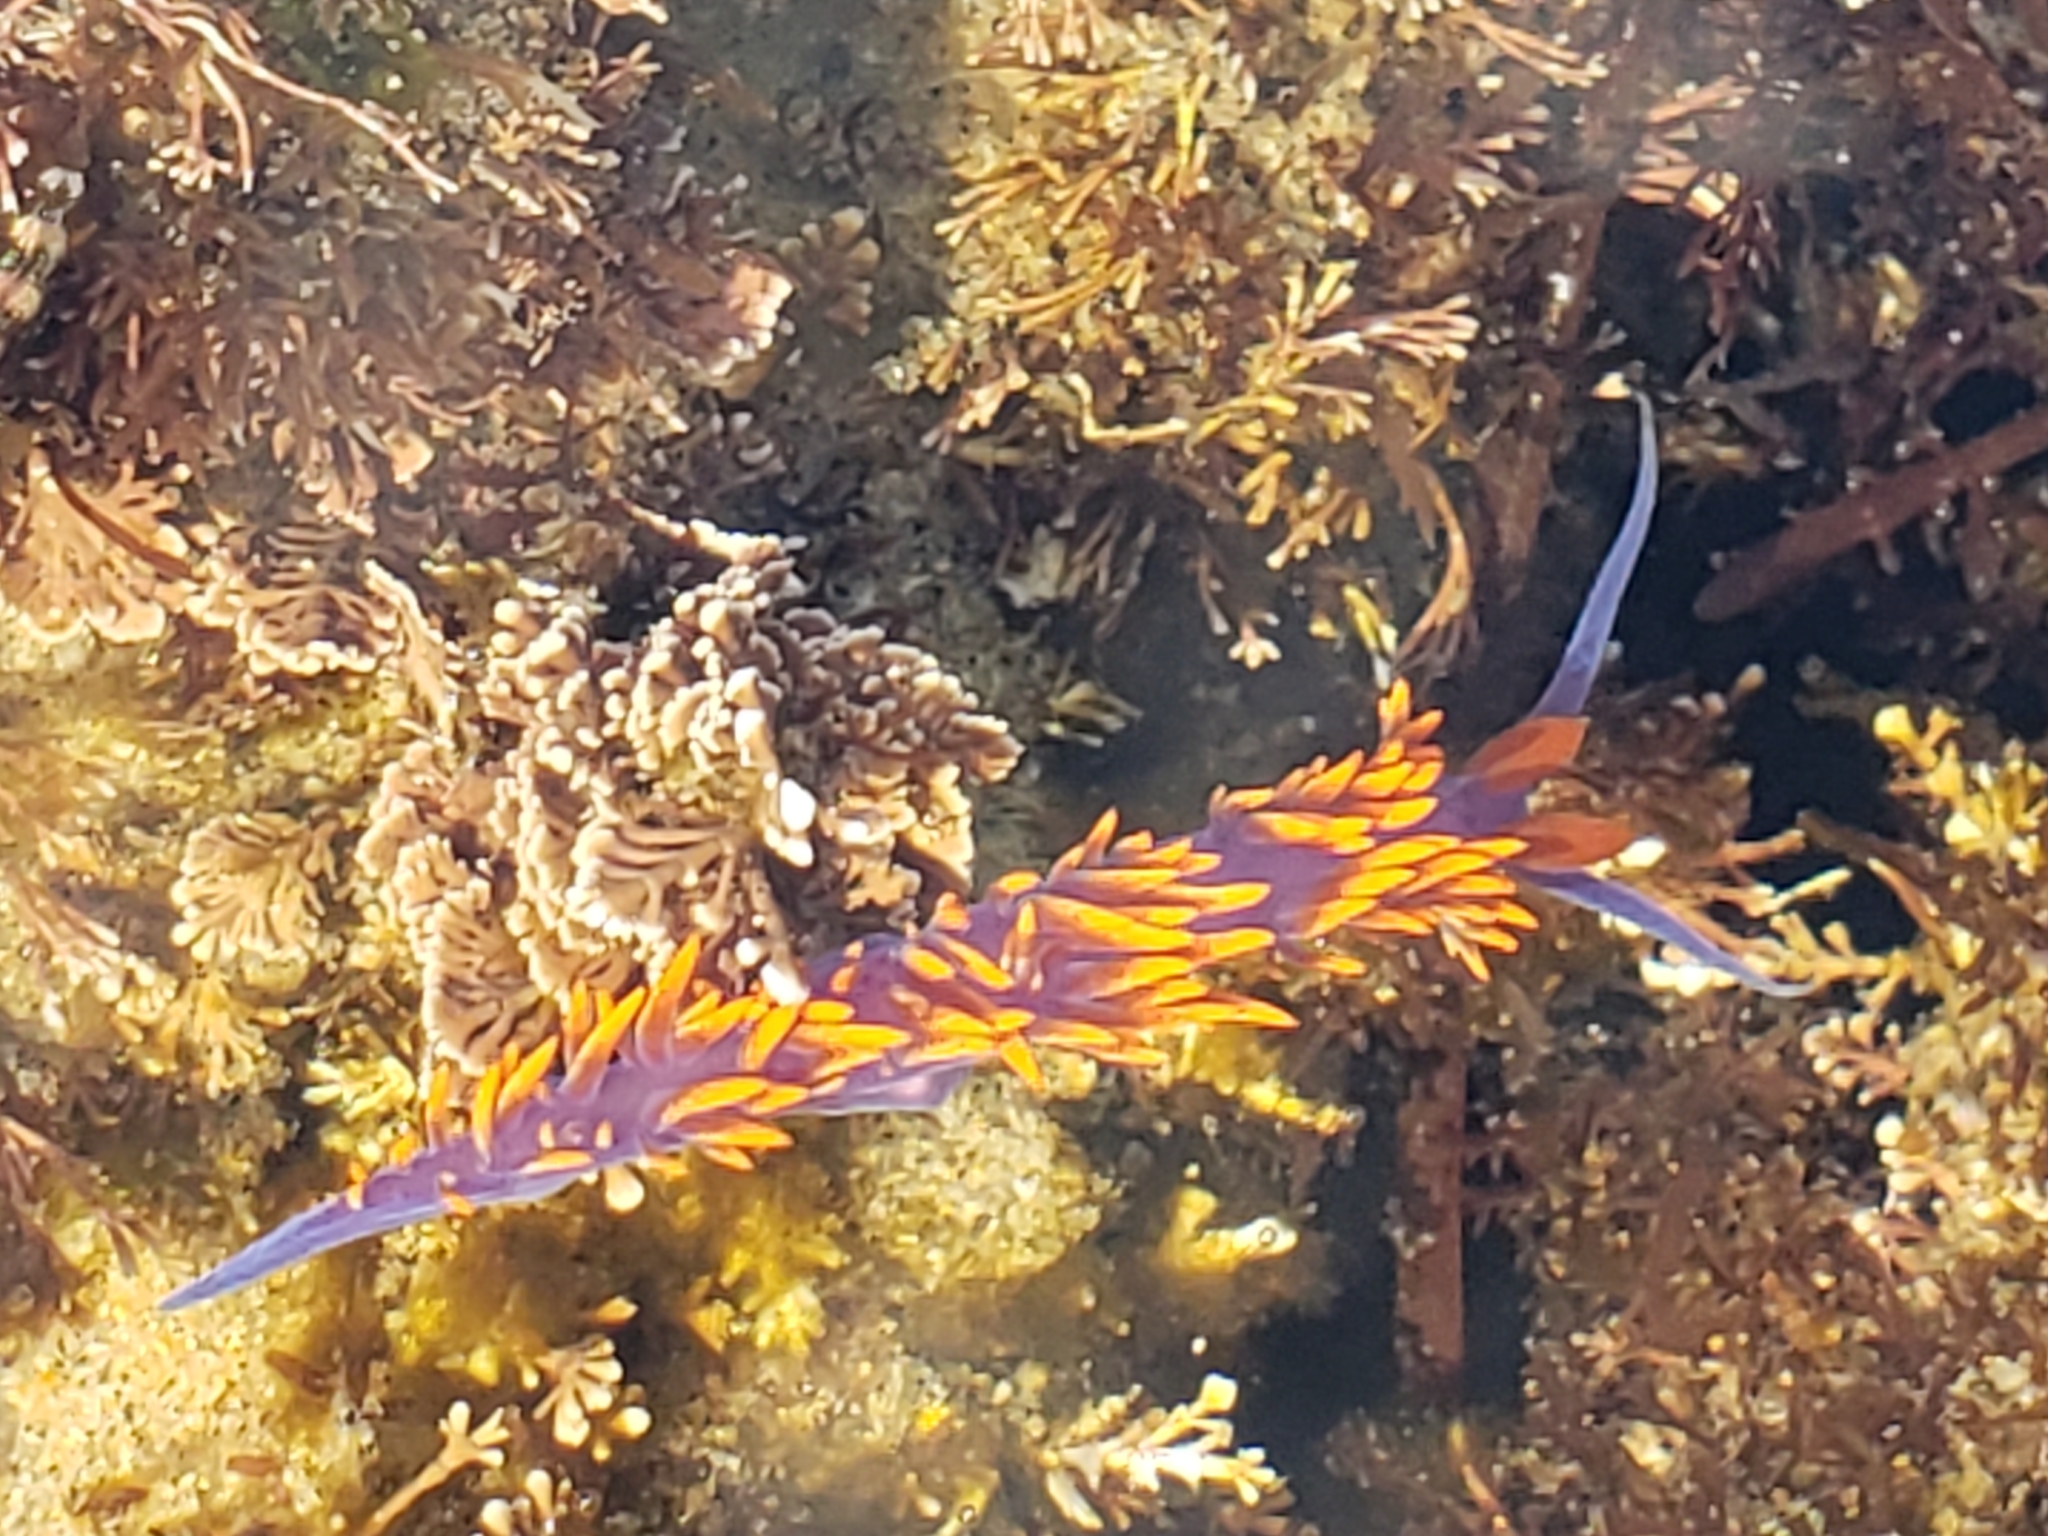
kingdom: Animalia
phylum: Mollusca
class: Gastropoda
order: Nudibranchia
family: Flabellinopsidae
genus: Flabellinopsis
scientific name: Flabellinopsis iodinea
